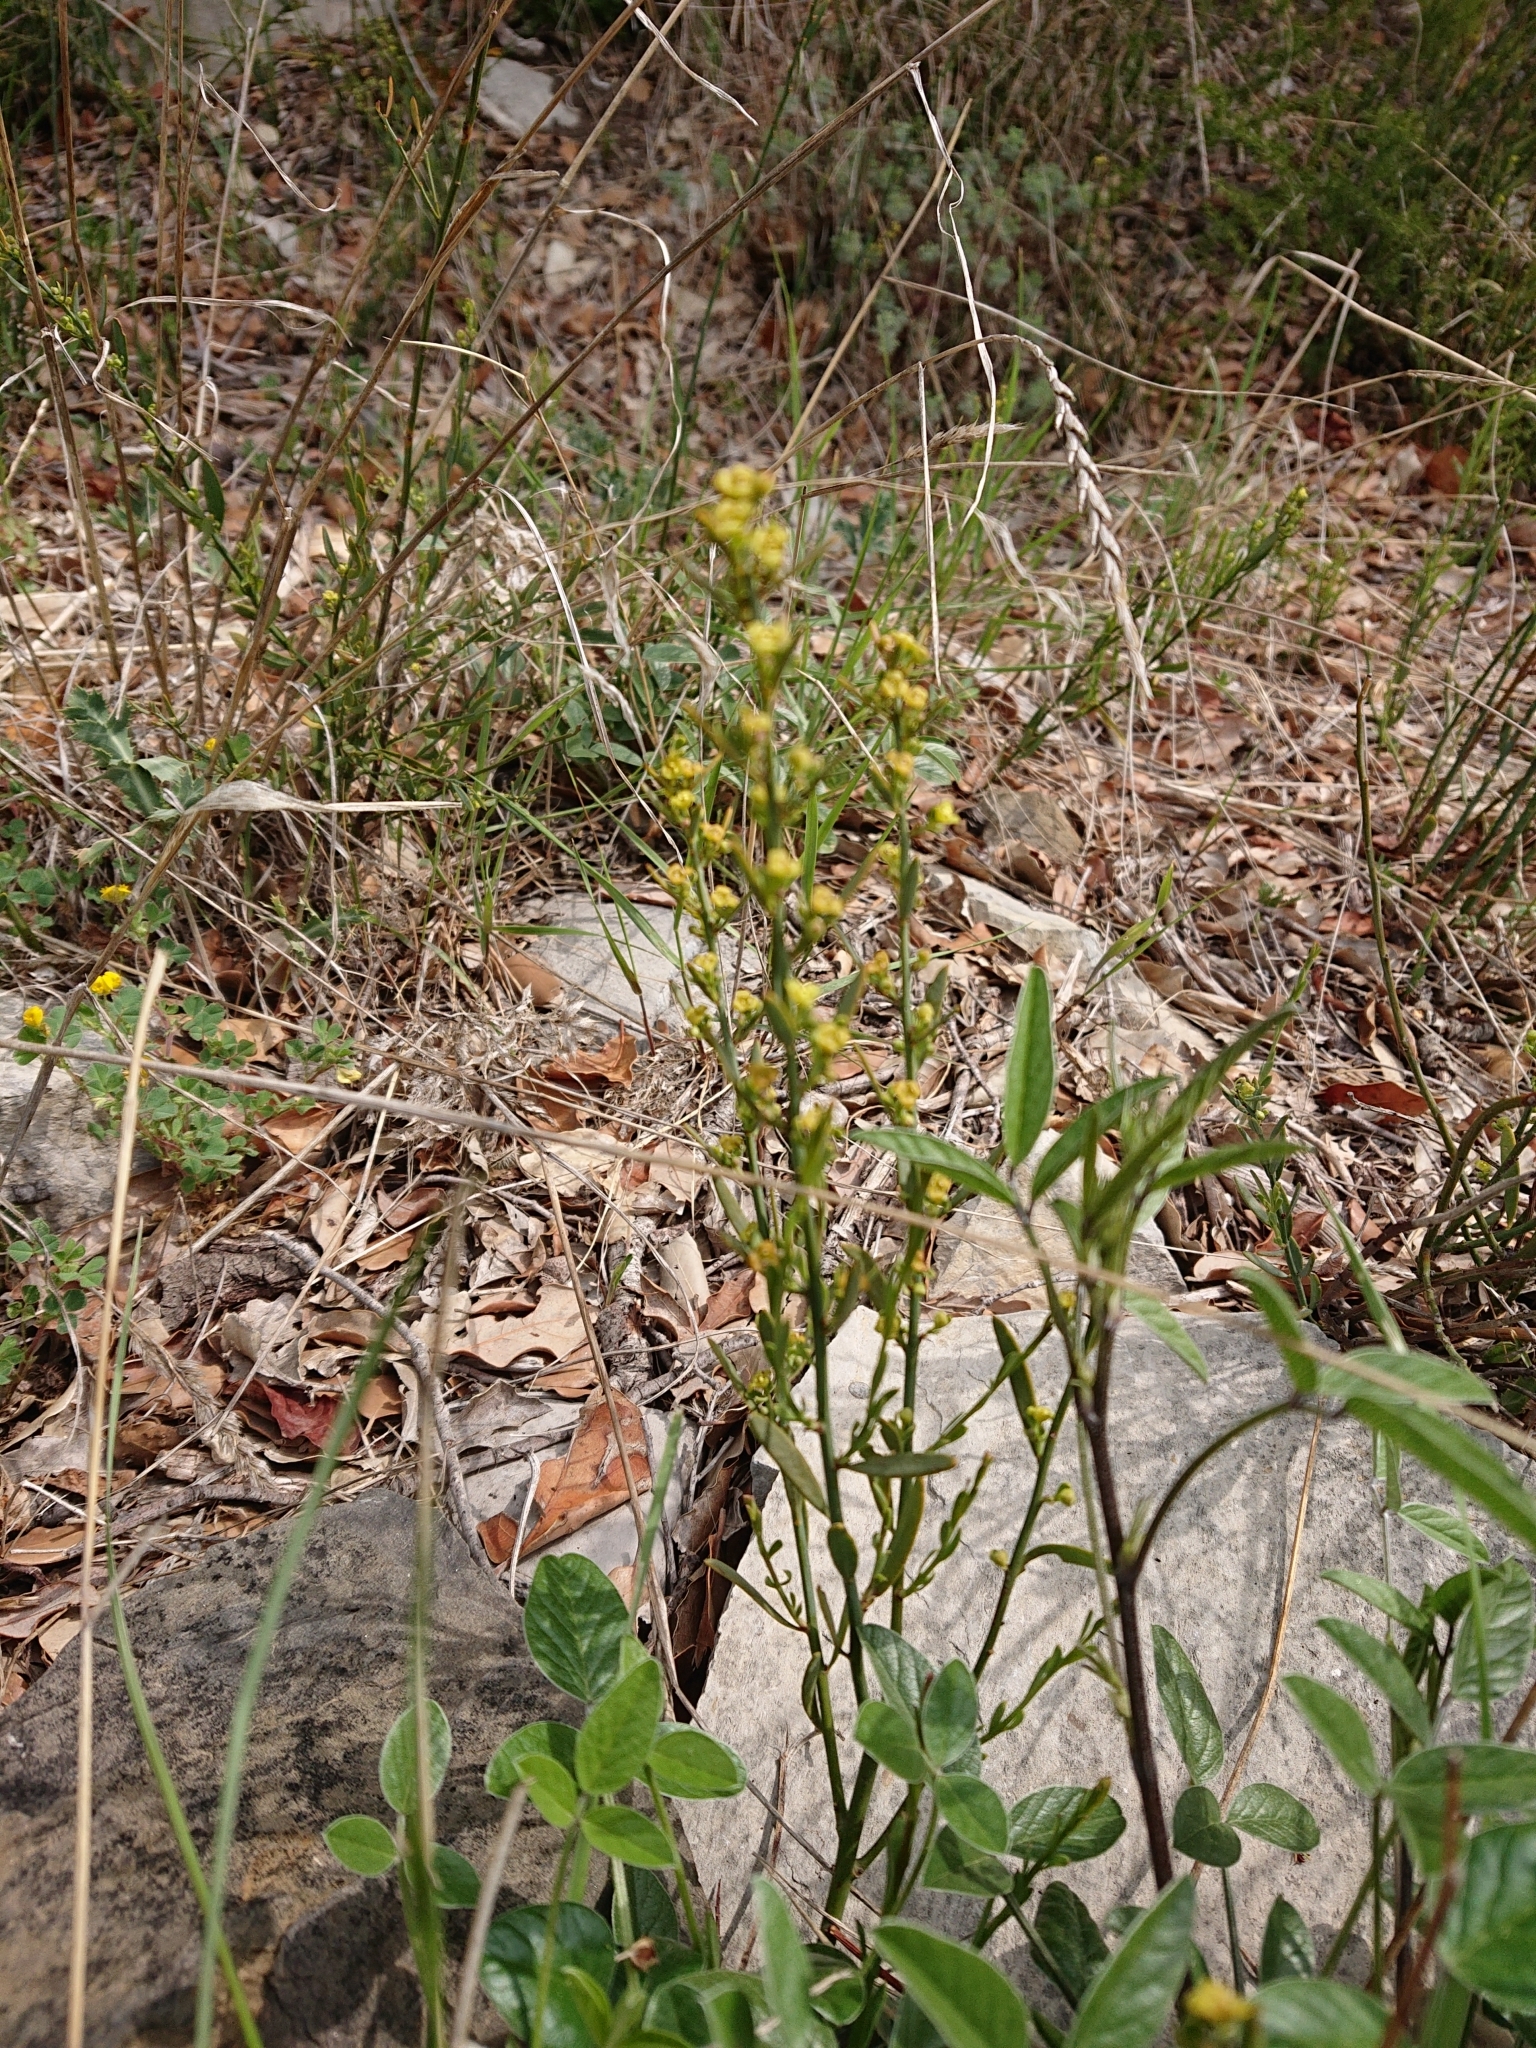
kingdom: Plantae
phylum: Tracheophyta
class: Magnoliopsida
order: Santalales
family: Santalaceae
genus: Osyris
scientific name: Osyris alba
